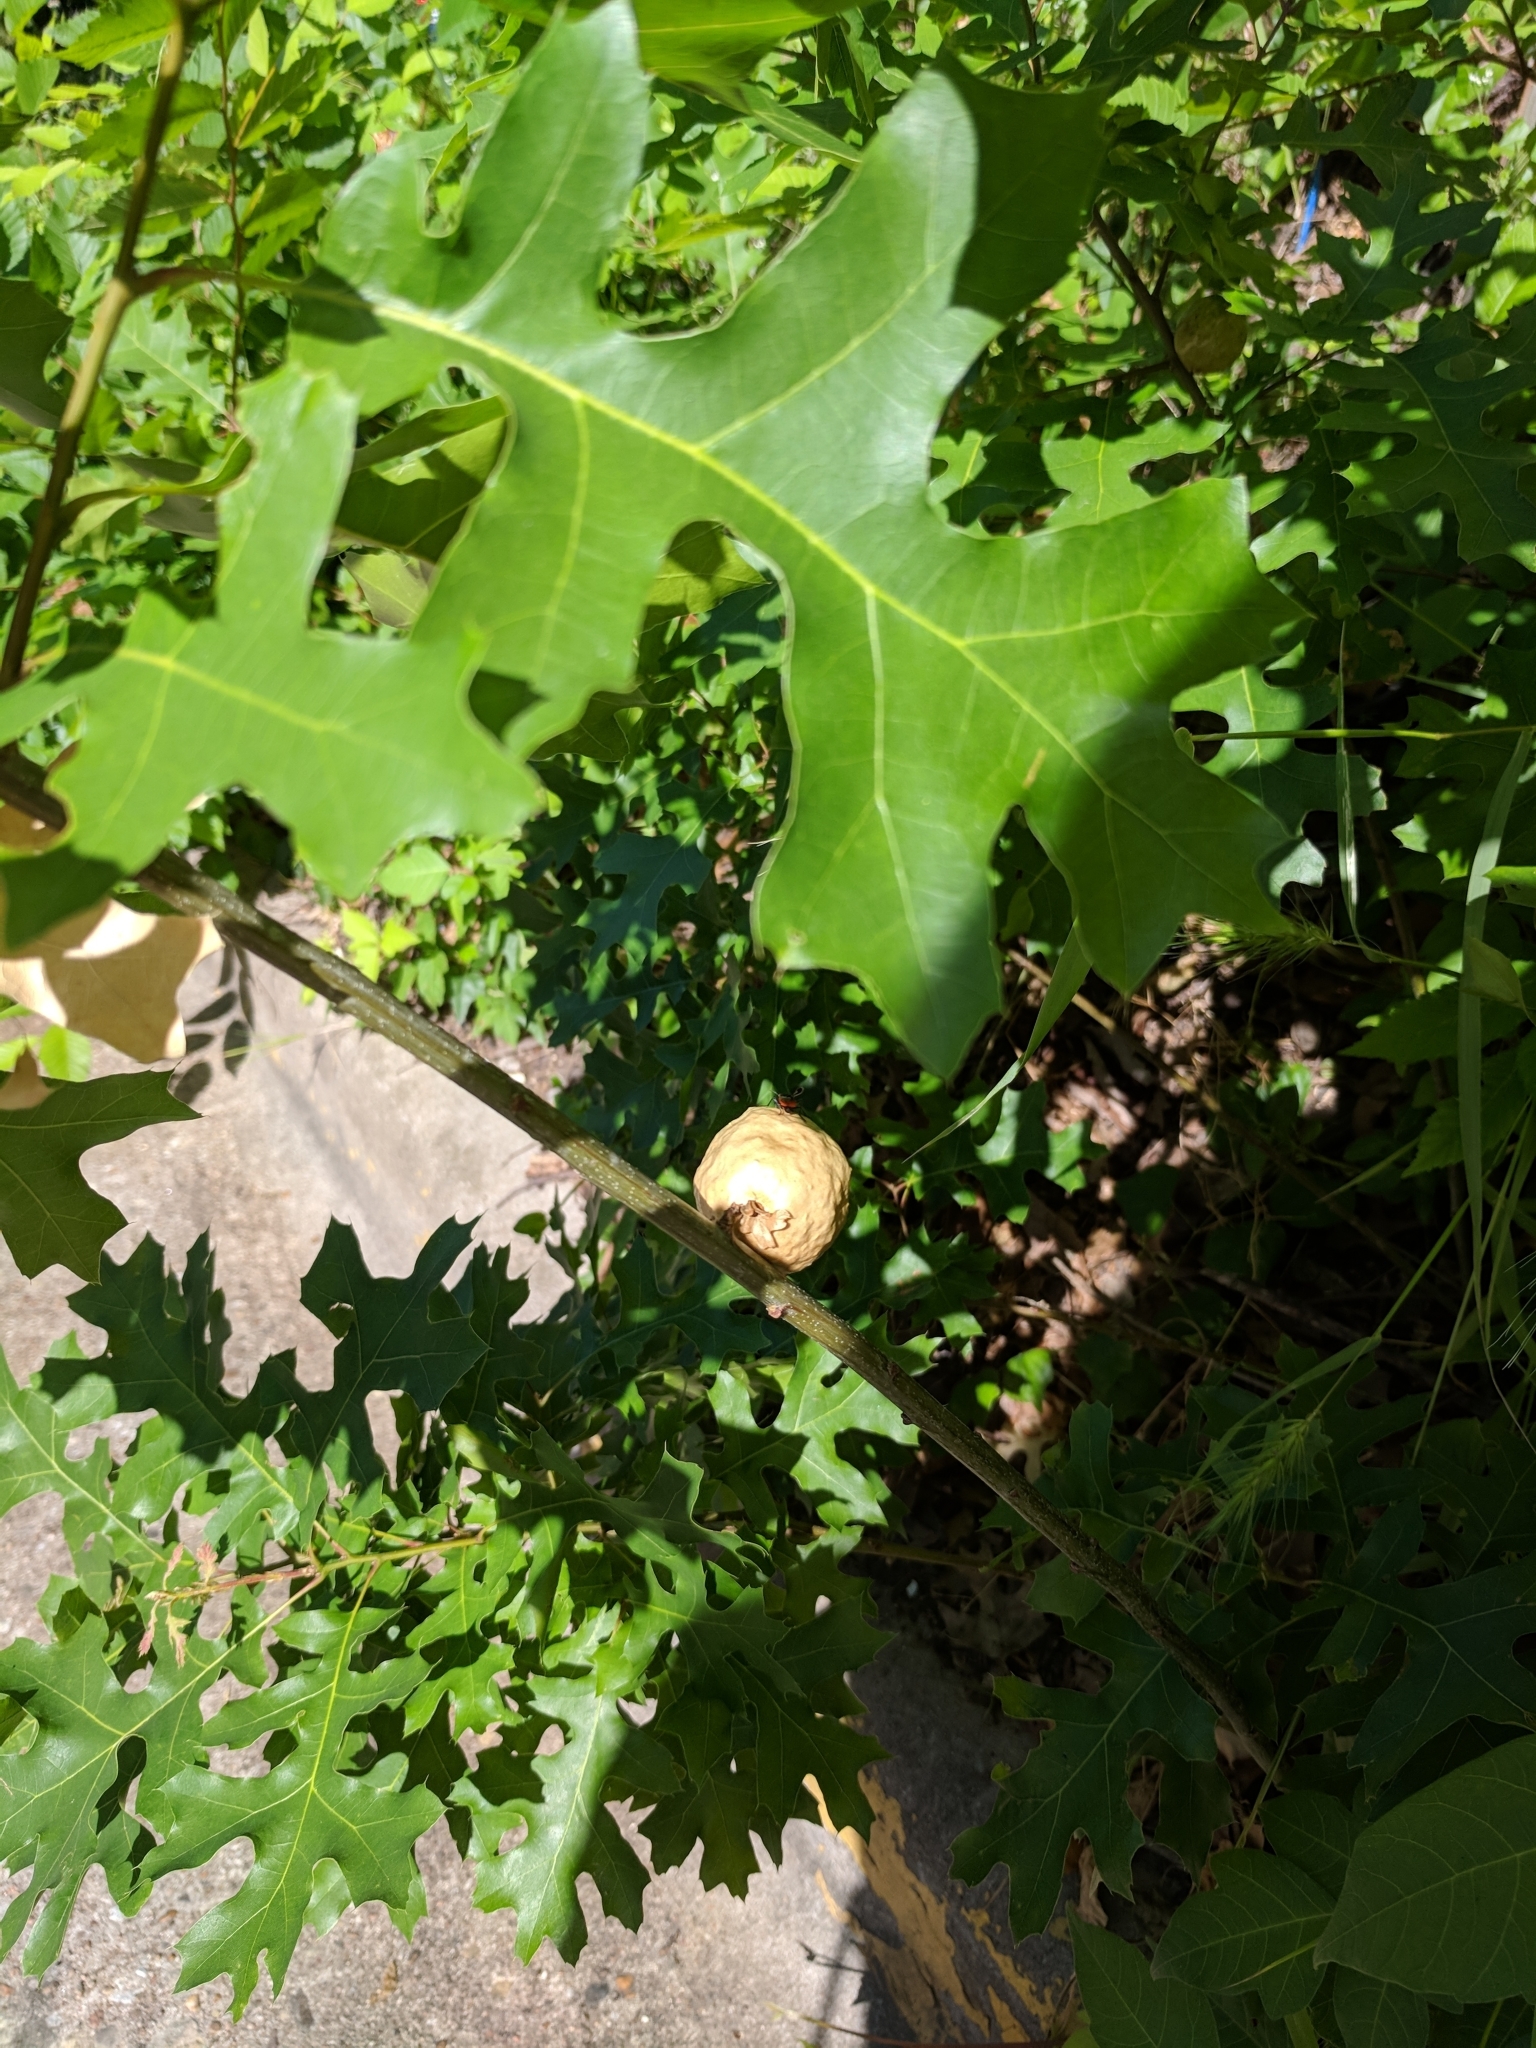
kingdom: Animalia
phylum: Arthropoda
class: Insecta
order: Hemiptera
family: Lygaeidae
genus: Lygaeus
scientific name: Lygaeus kalmii
